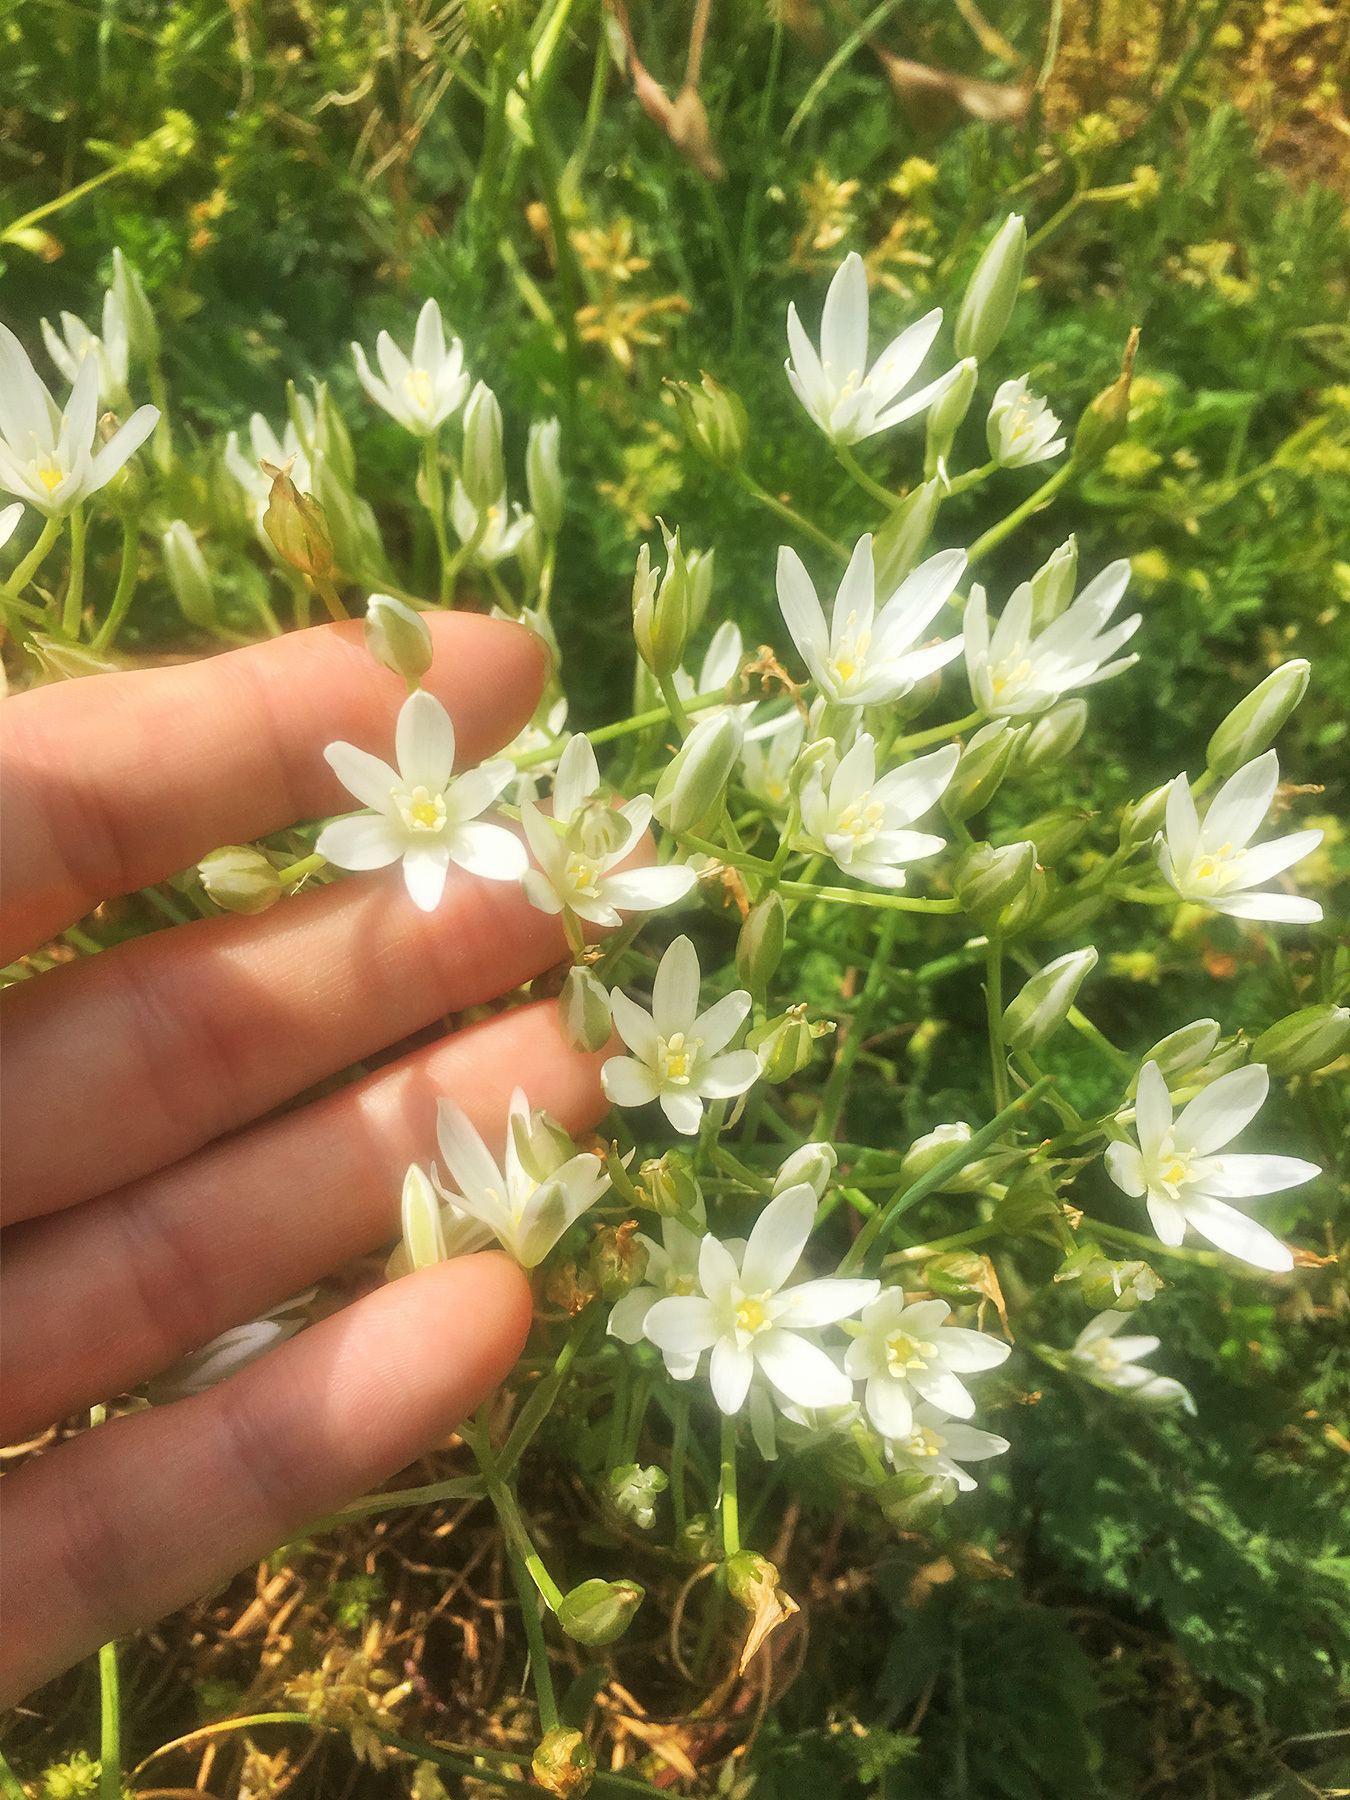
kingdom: Plantae
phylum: Tracheophyta
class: Liliopsida
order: Asparagales
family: Asparagaceae
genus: Ornithogalum
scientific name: Ornithogalum umbellatum
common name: Garden star-of-bethlehem
